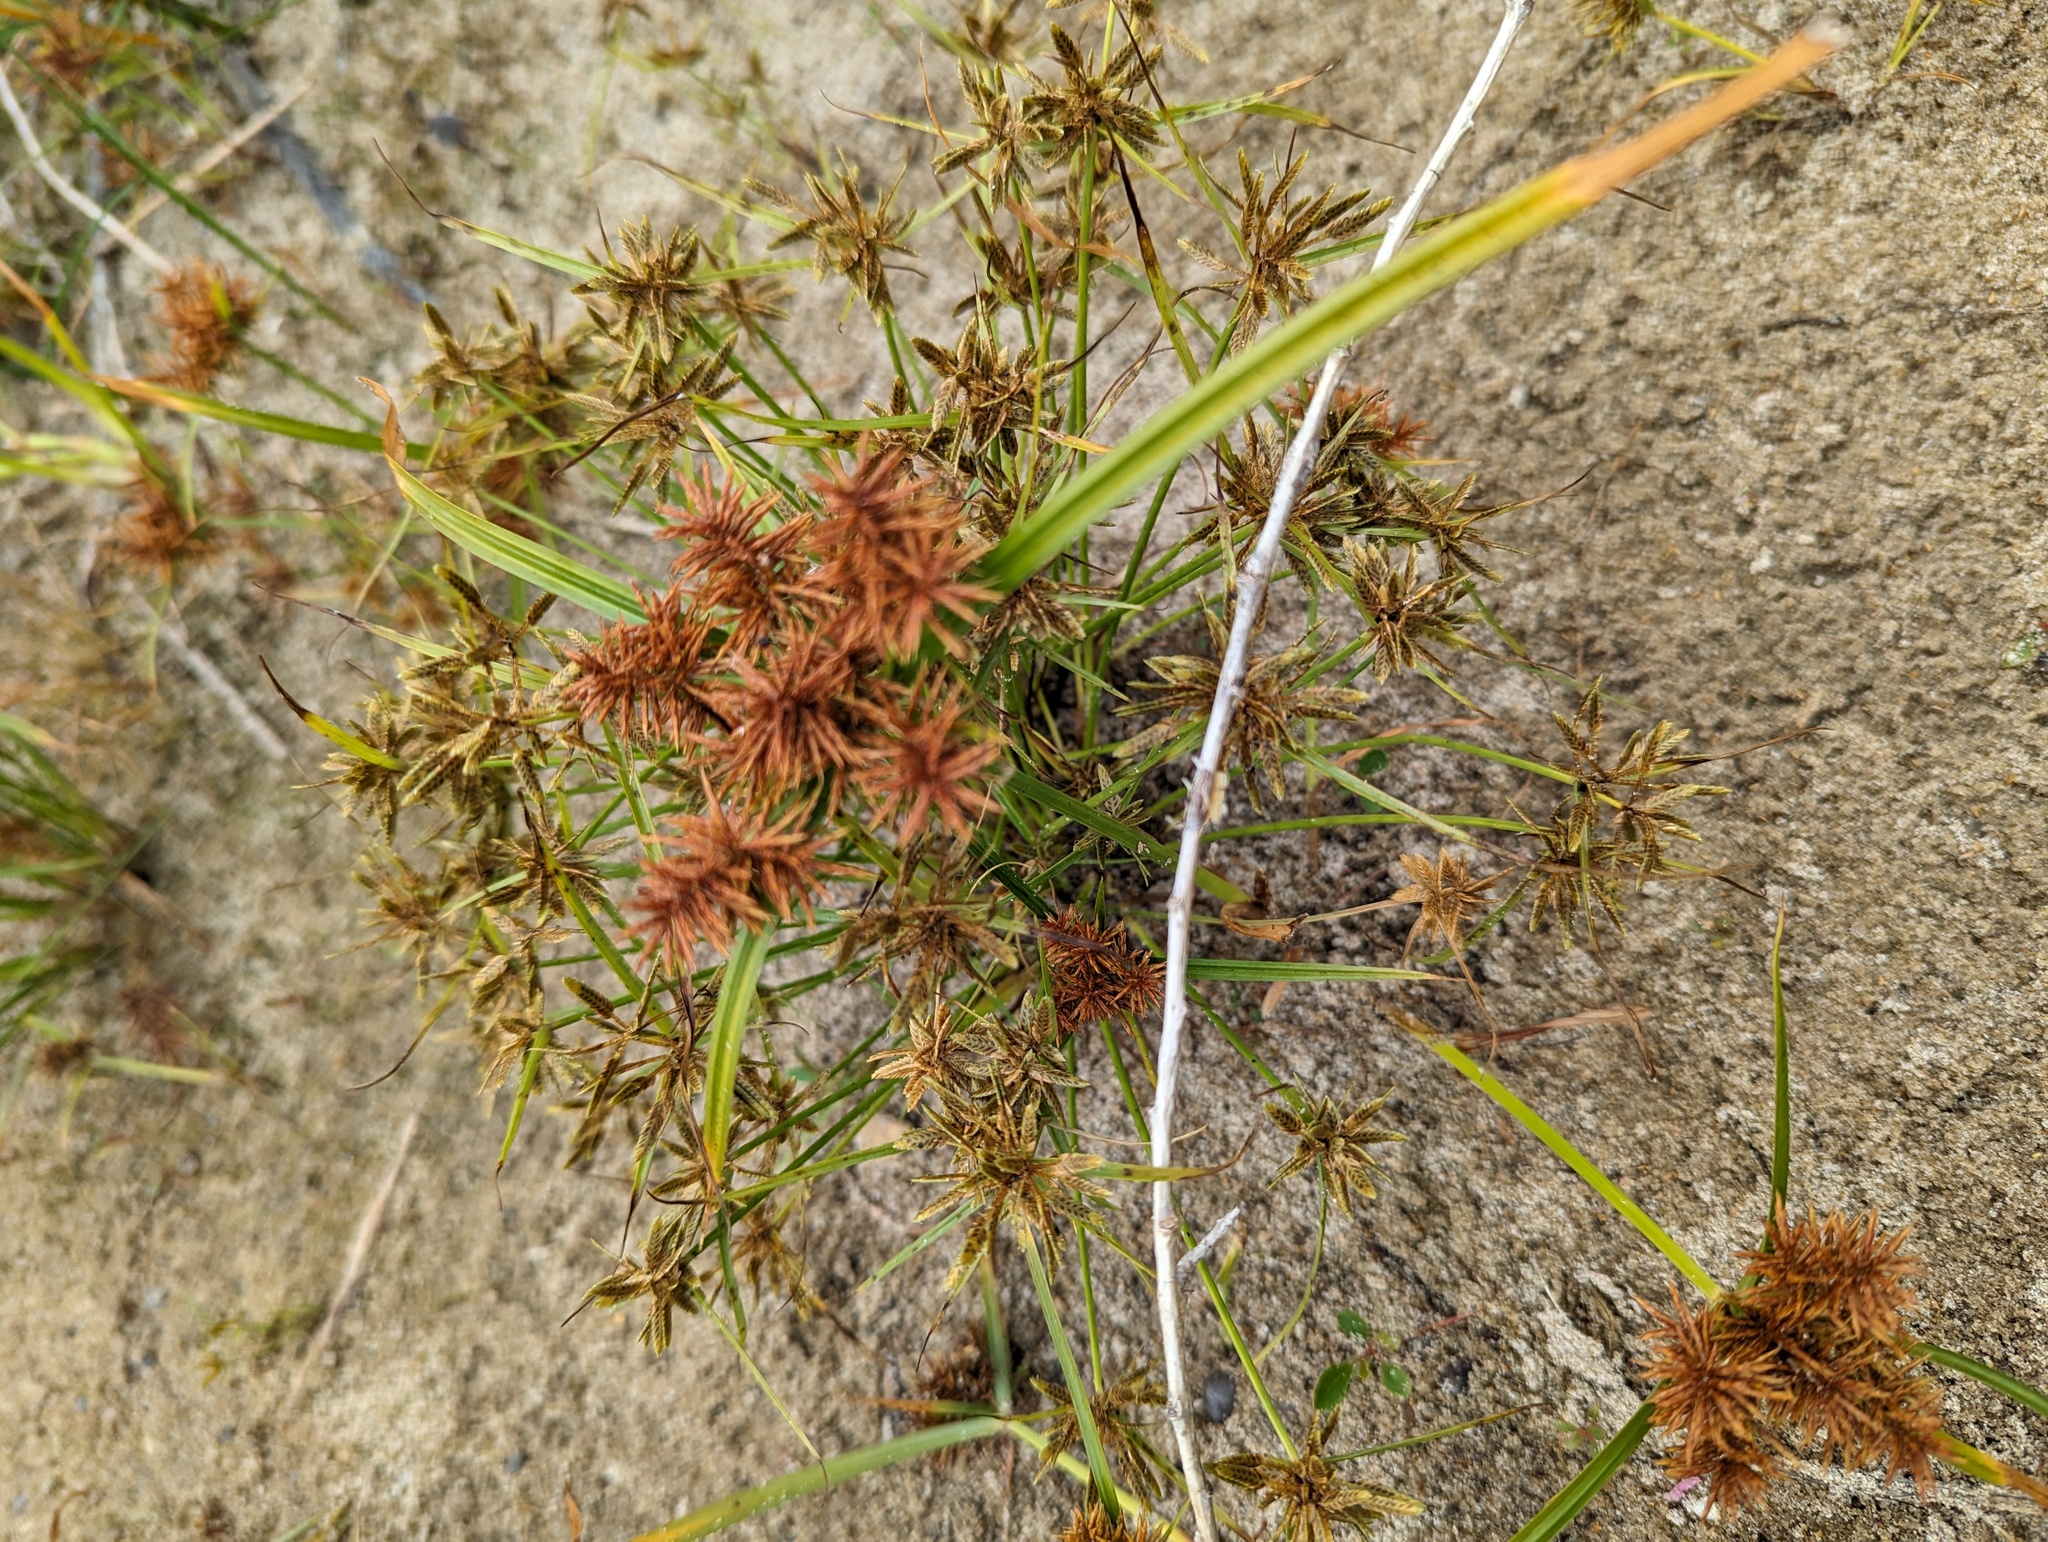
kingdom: Plantae
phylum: Tracheophyta
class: Liliopsida
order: Poales
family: Cyperaceae
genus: Cyperus
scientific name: Cyperus flavescens
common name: Yellow galingale
